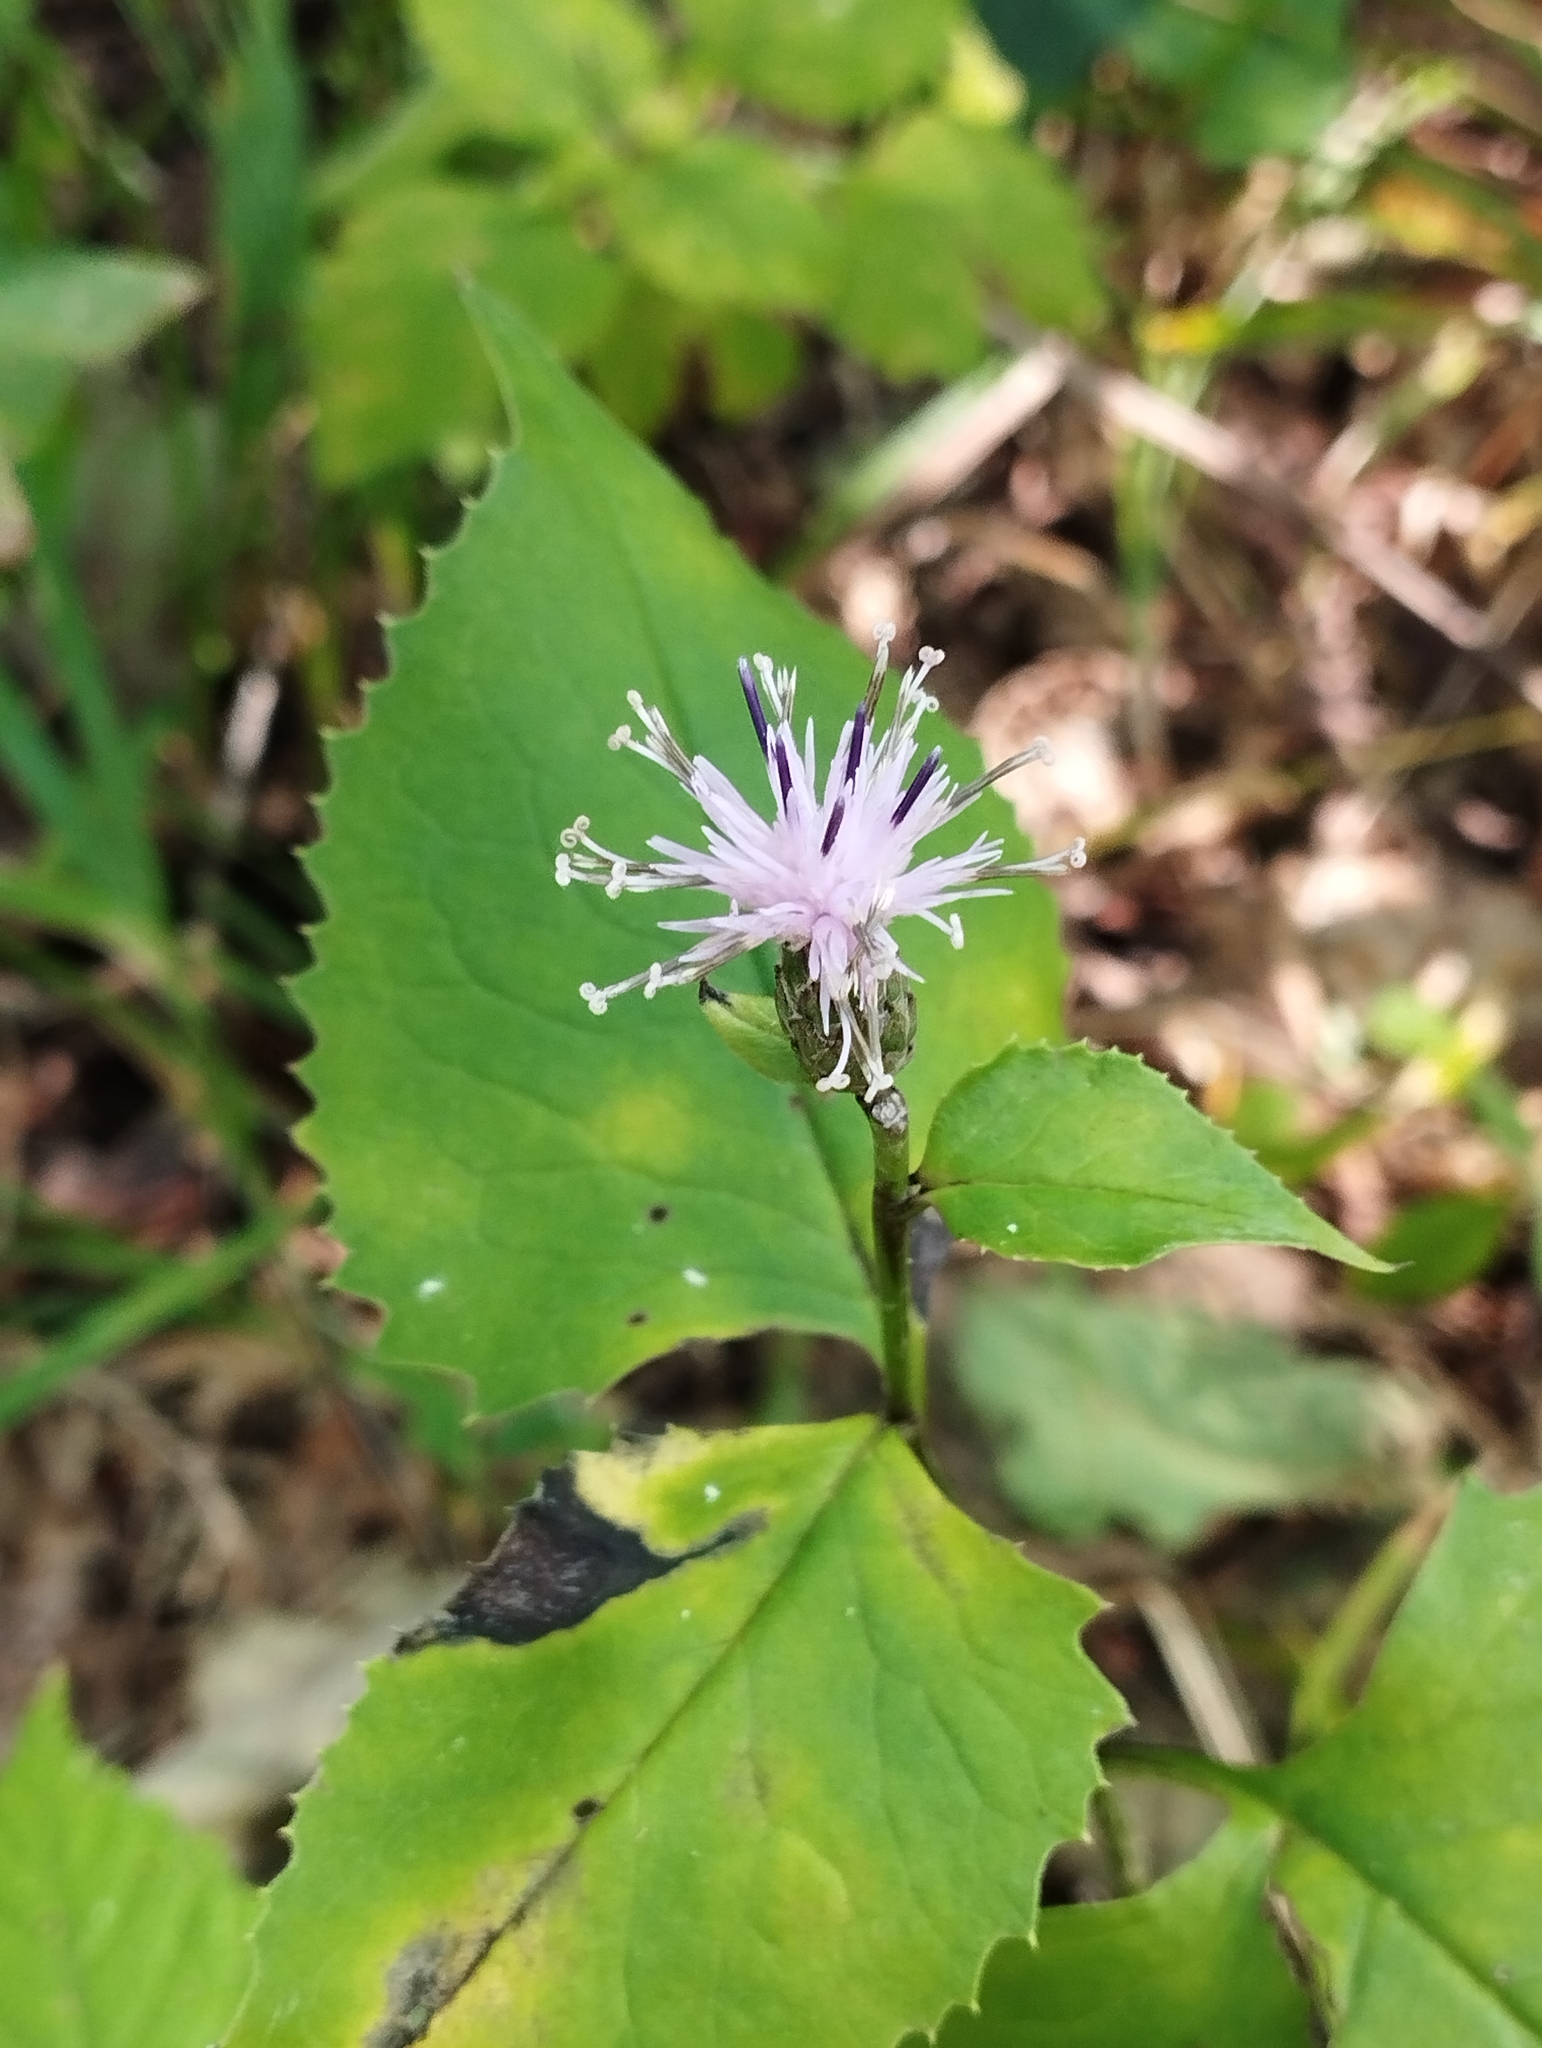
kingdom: Plantae
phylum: Tracheophyta
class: Magnoliopsida
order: Asterales
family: Asteraceae
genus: Saussurea
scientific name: Saussurea grandifolia
